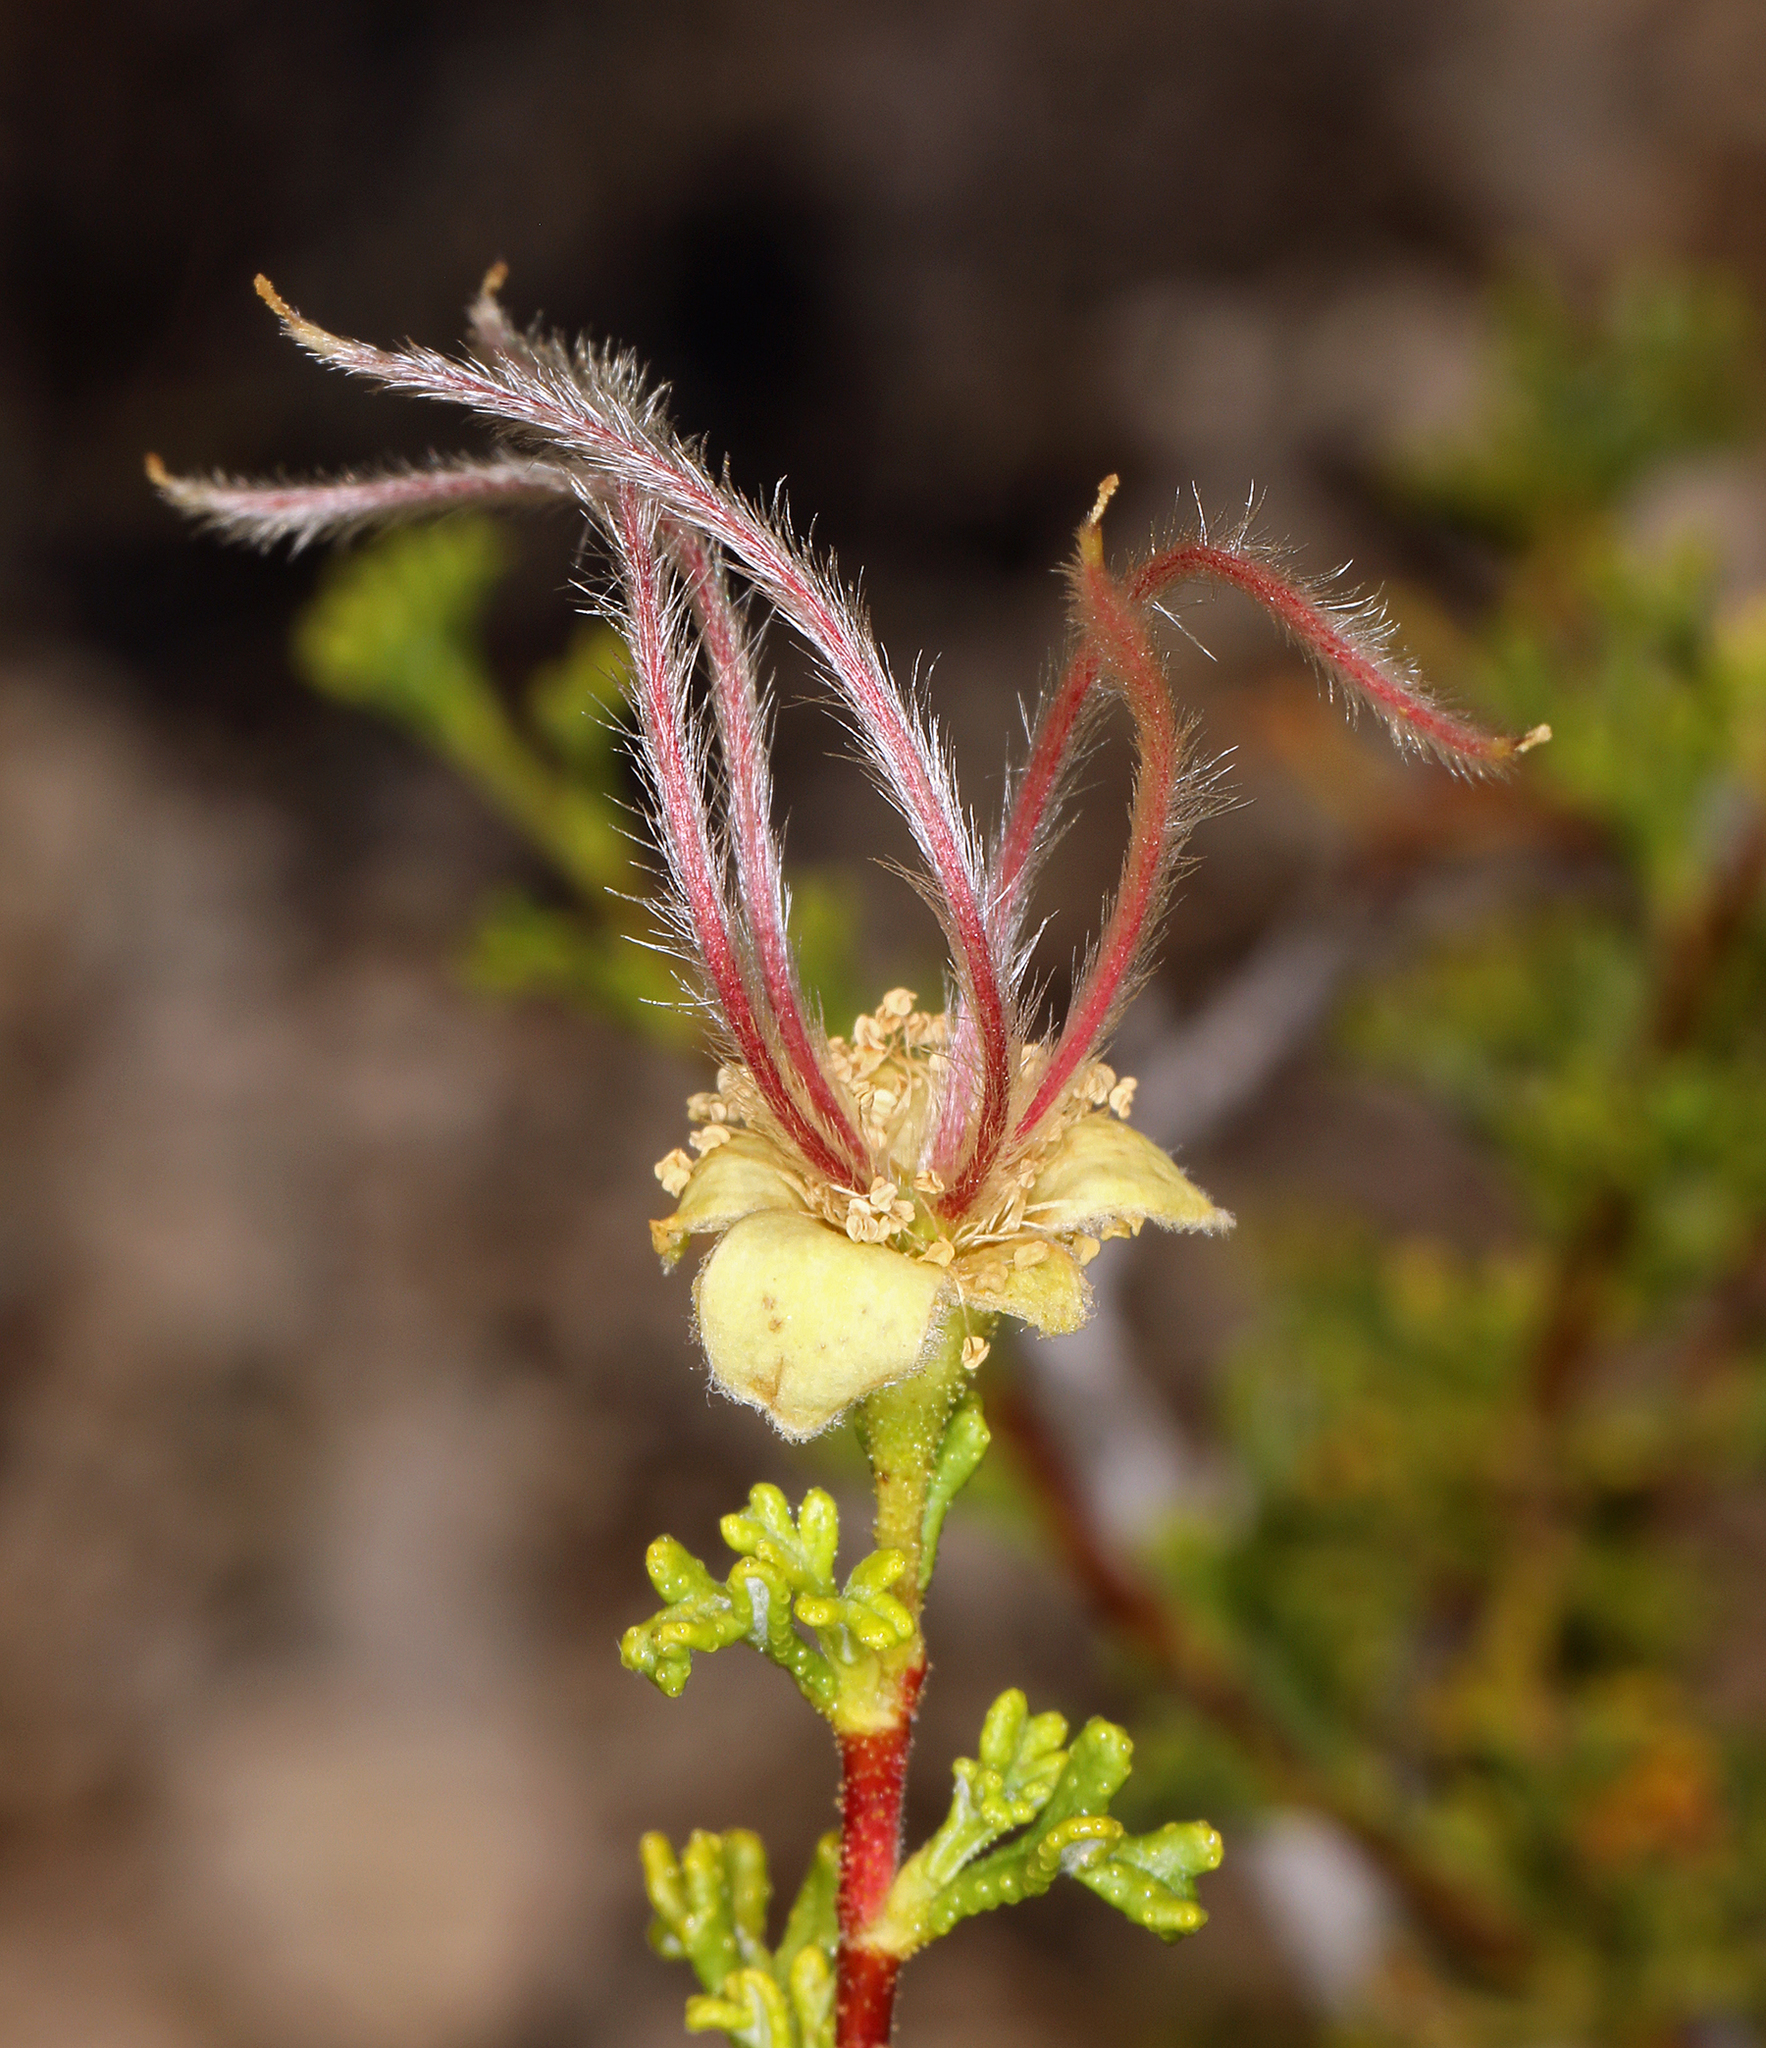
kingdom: Plantae
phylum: Tracheophyta
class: Magnoliopsida
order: Rosales
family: Rosaceae
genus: Purshia
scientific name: Purshia stansburiana
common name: Stansbury's cliffrose
